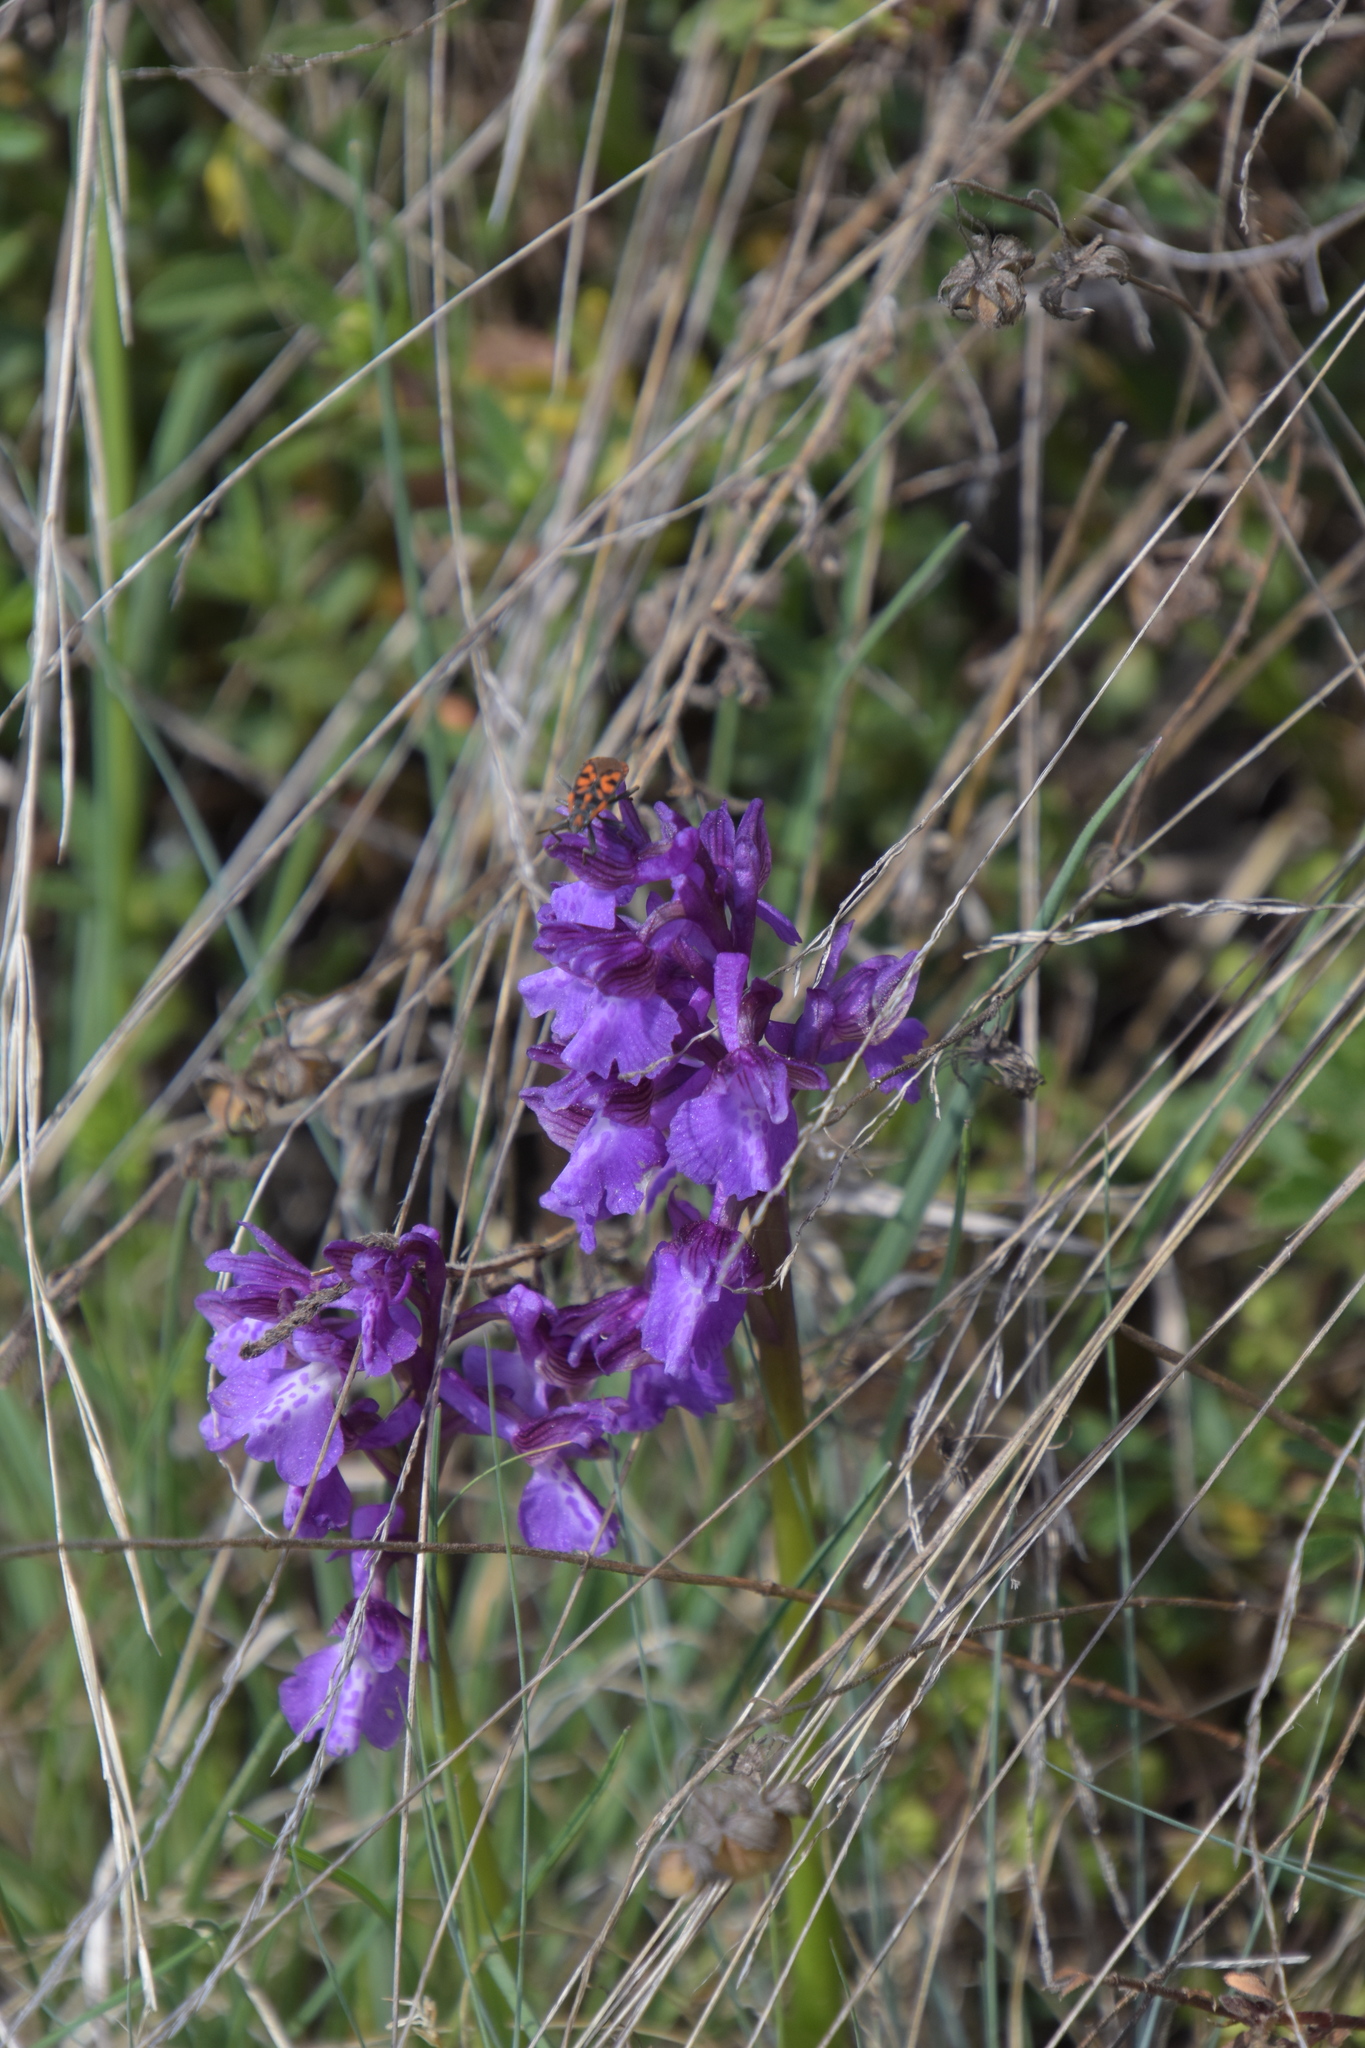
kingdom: Plantae
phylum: Tracheophyta
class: Liliopsida
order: Asparagales
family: Orchidaceae
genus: Anacamptis
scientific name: Anacamptis morio
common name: Green-winged orchid
